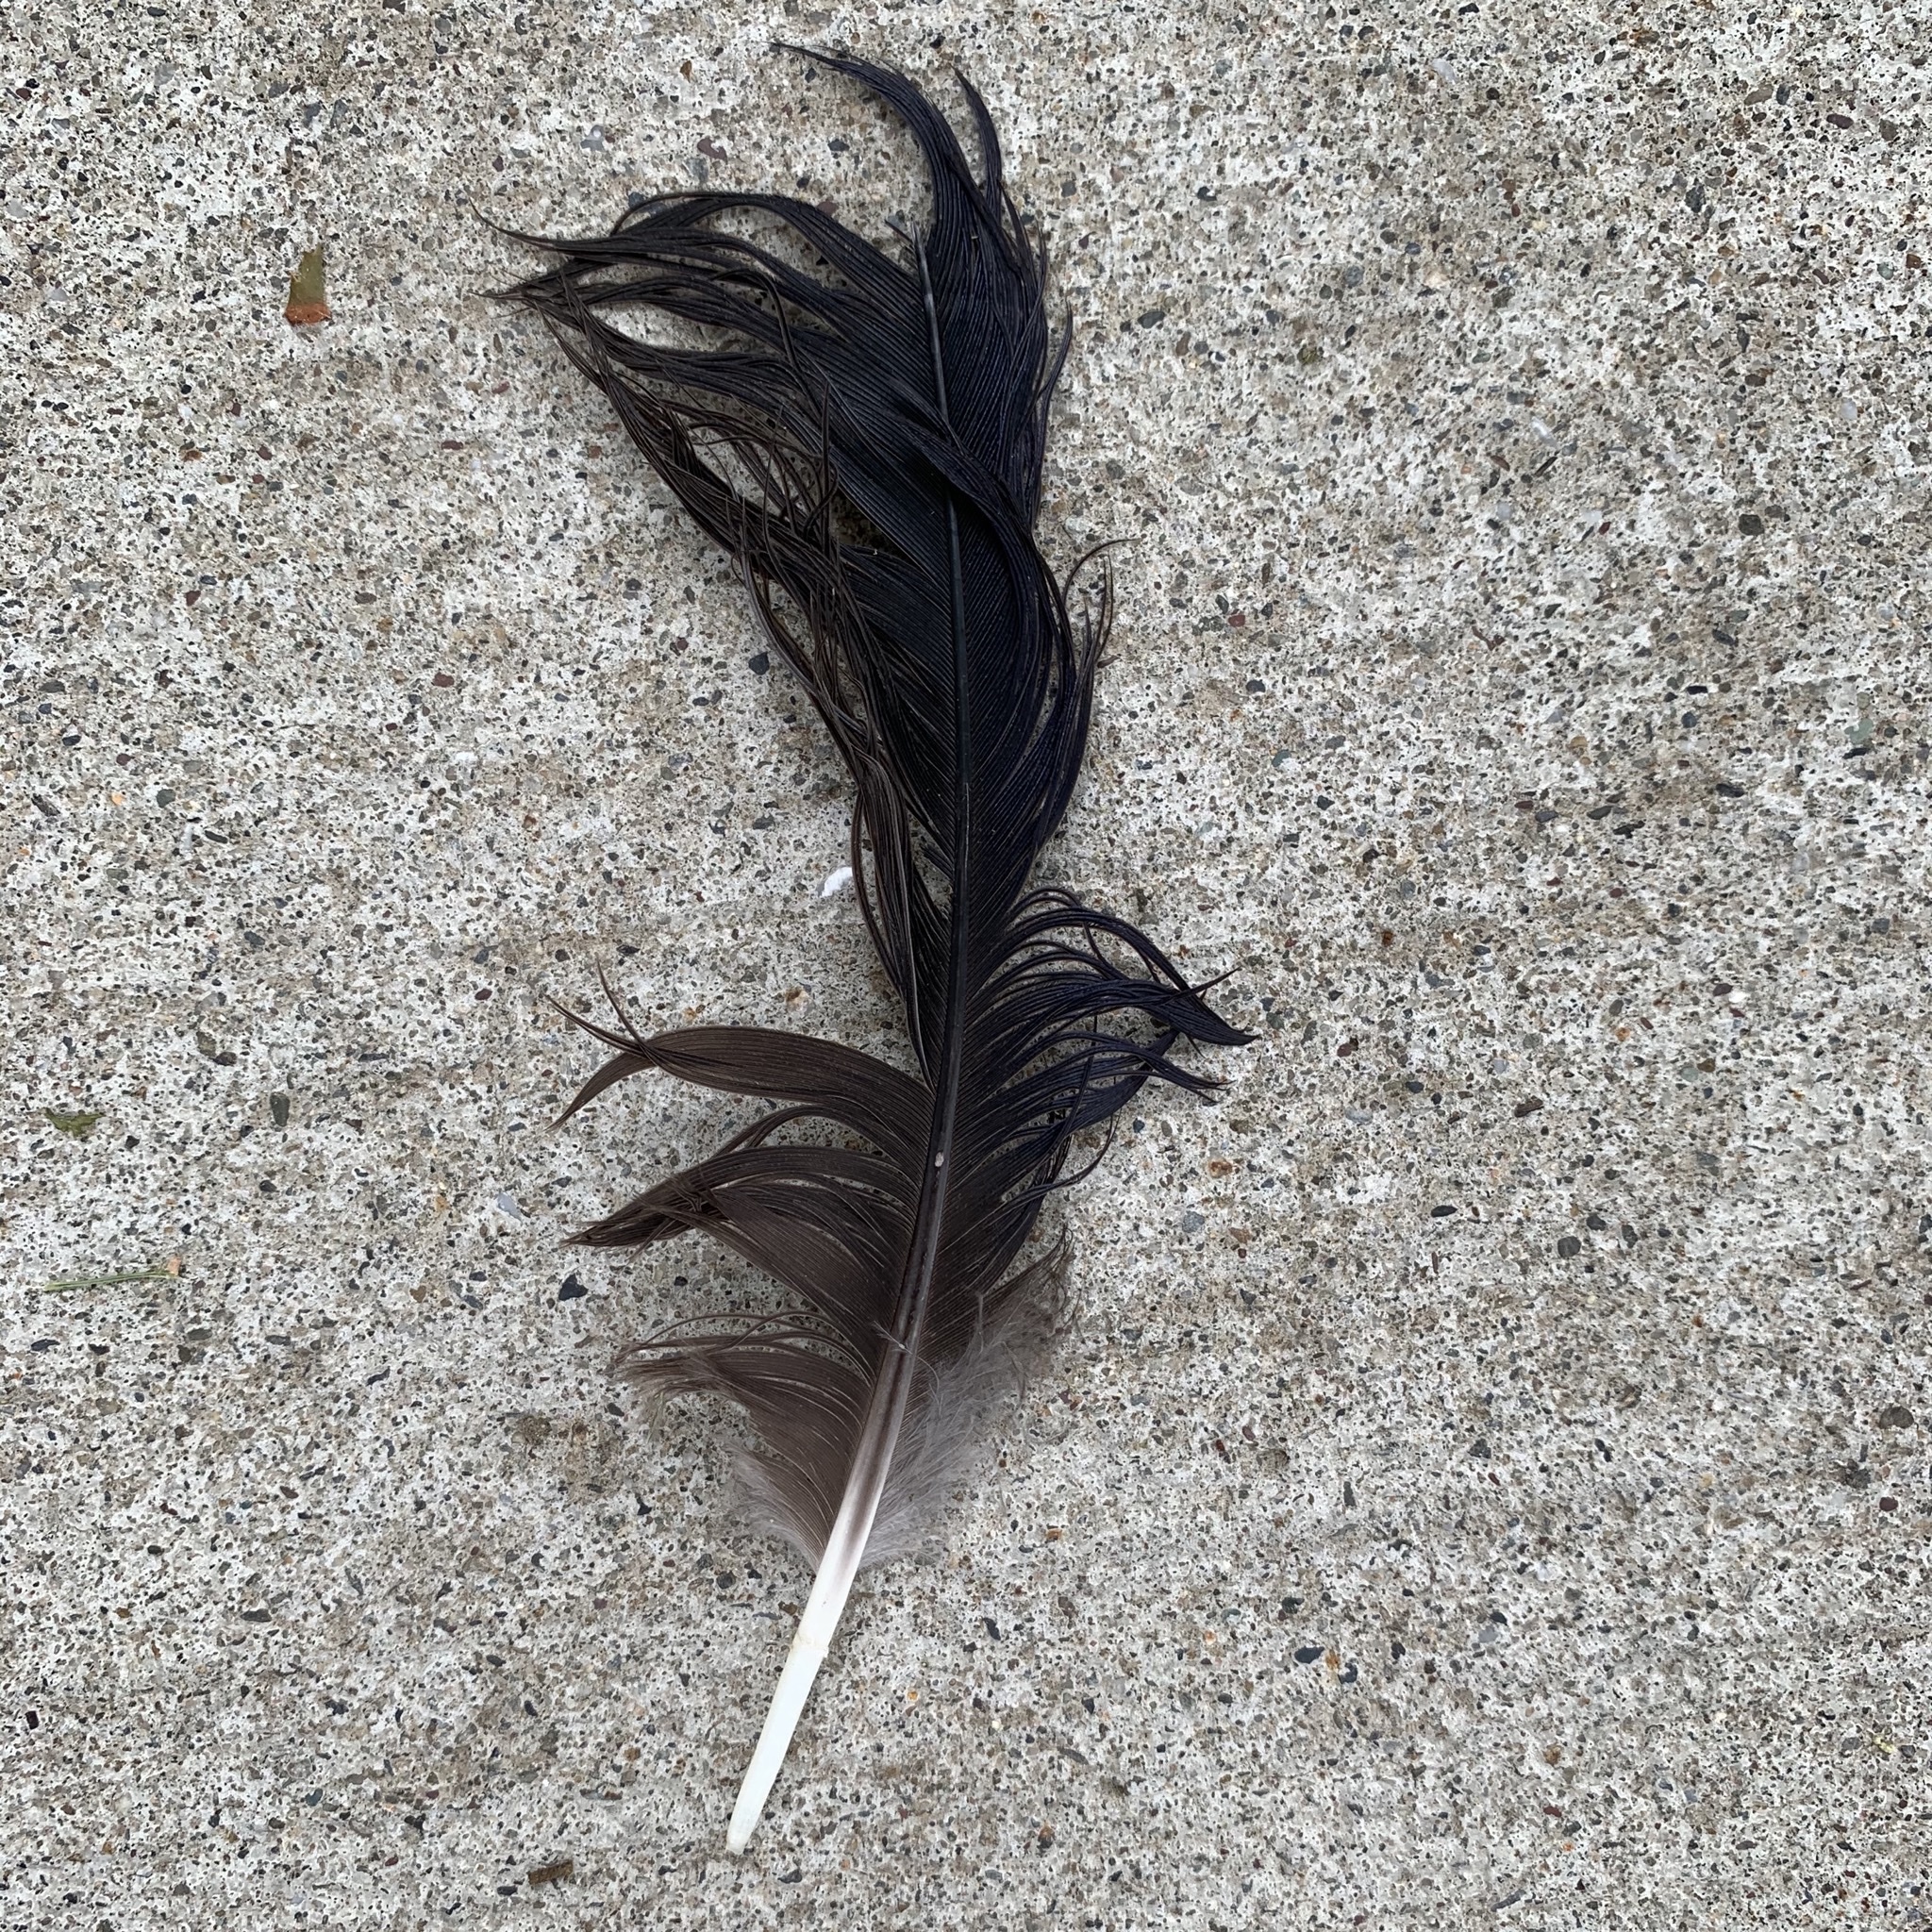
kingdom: Animalia
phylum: Chordata
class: Aves
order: Passeriformes
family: Corvidae
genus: Corvus
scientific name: Corvus
